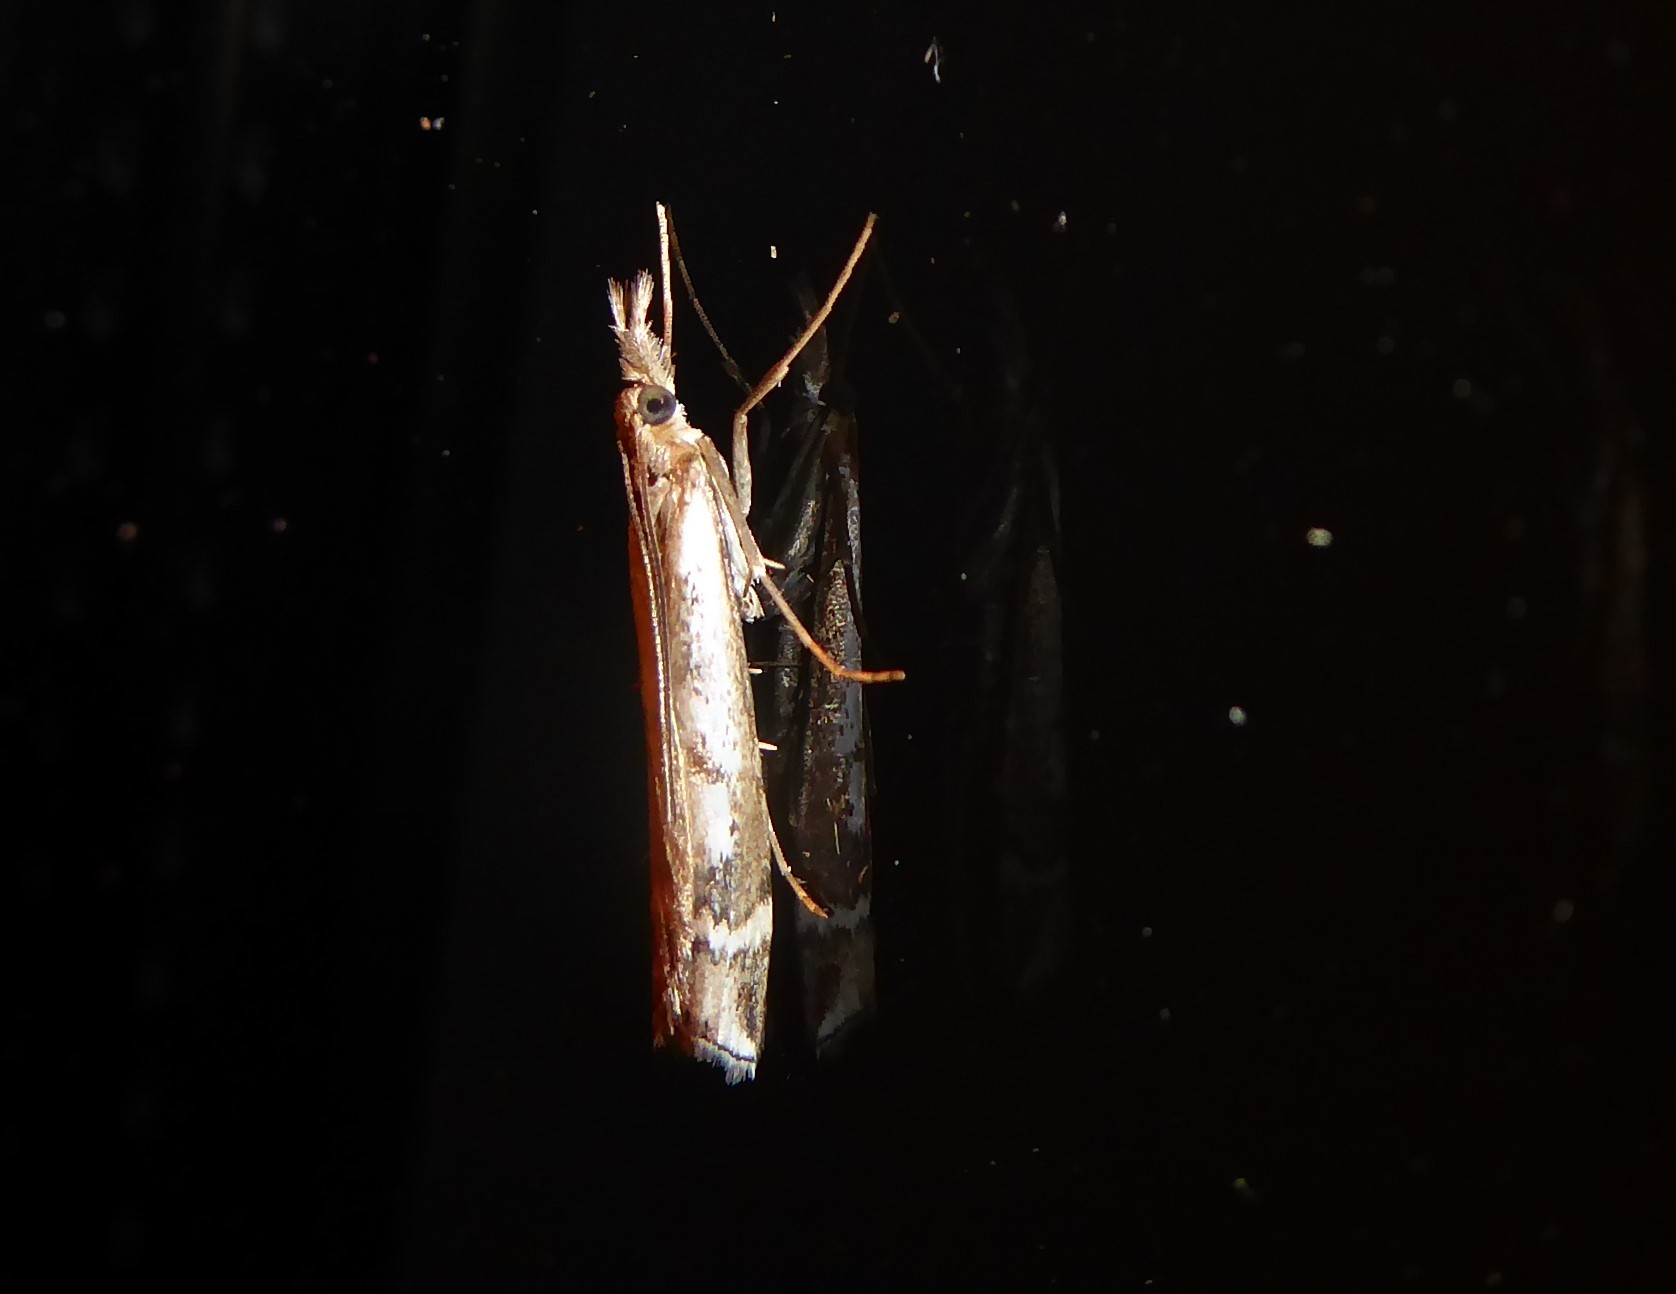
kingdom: Animalia
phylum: Arthropoda
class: Insecta
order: Lepidoptera
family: Crambidae
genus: Orocrambus
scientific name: Orocrambus vulgaris
